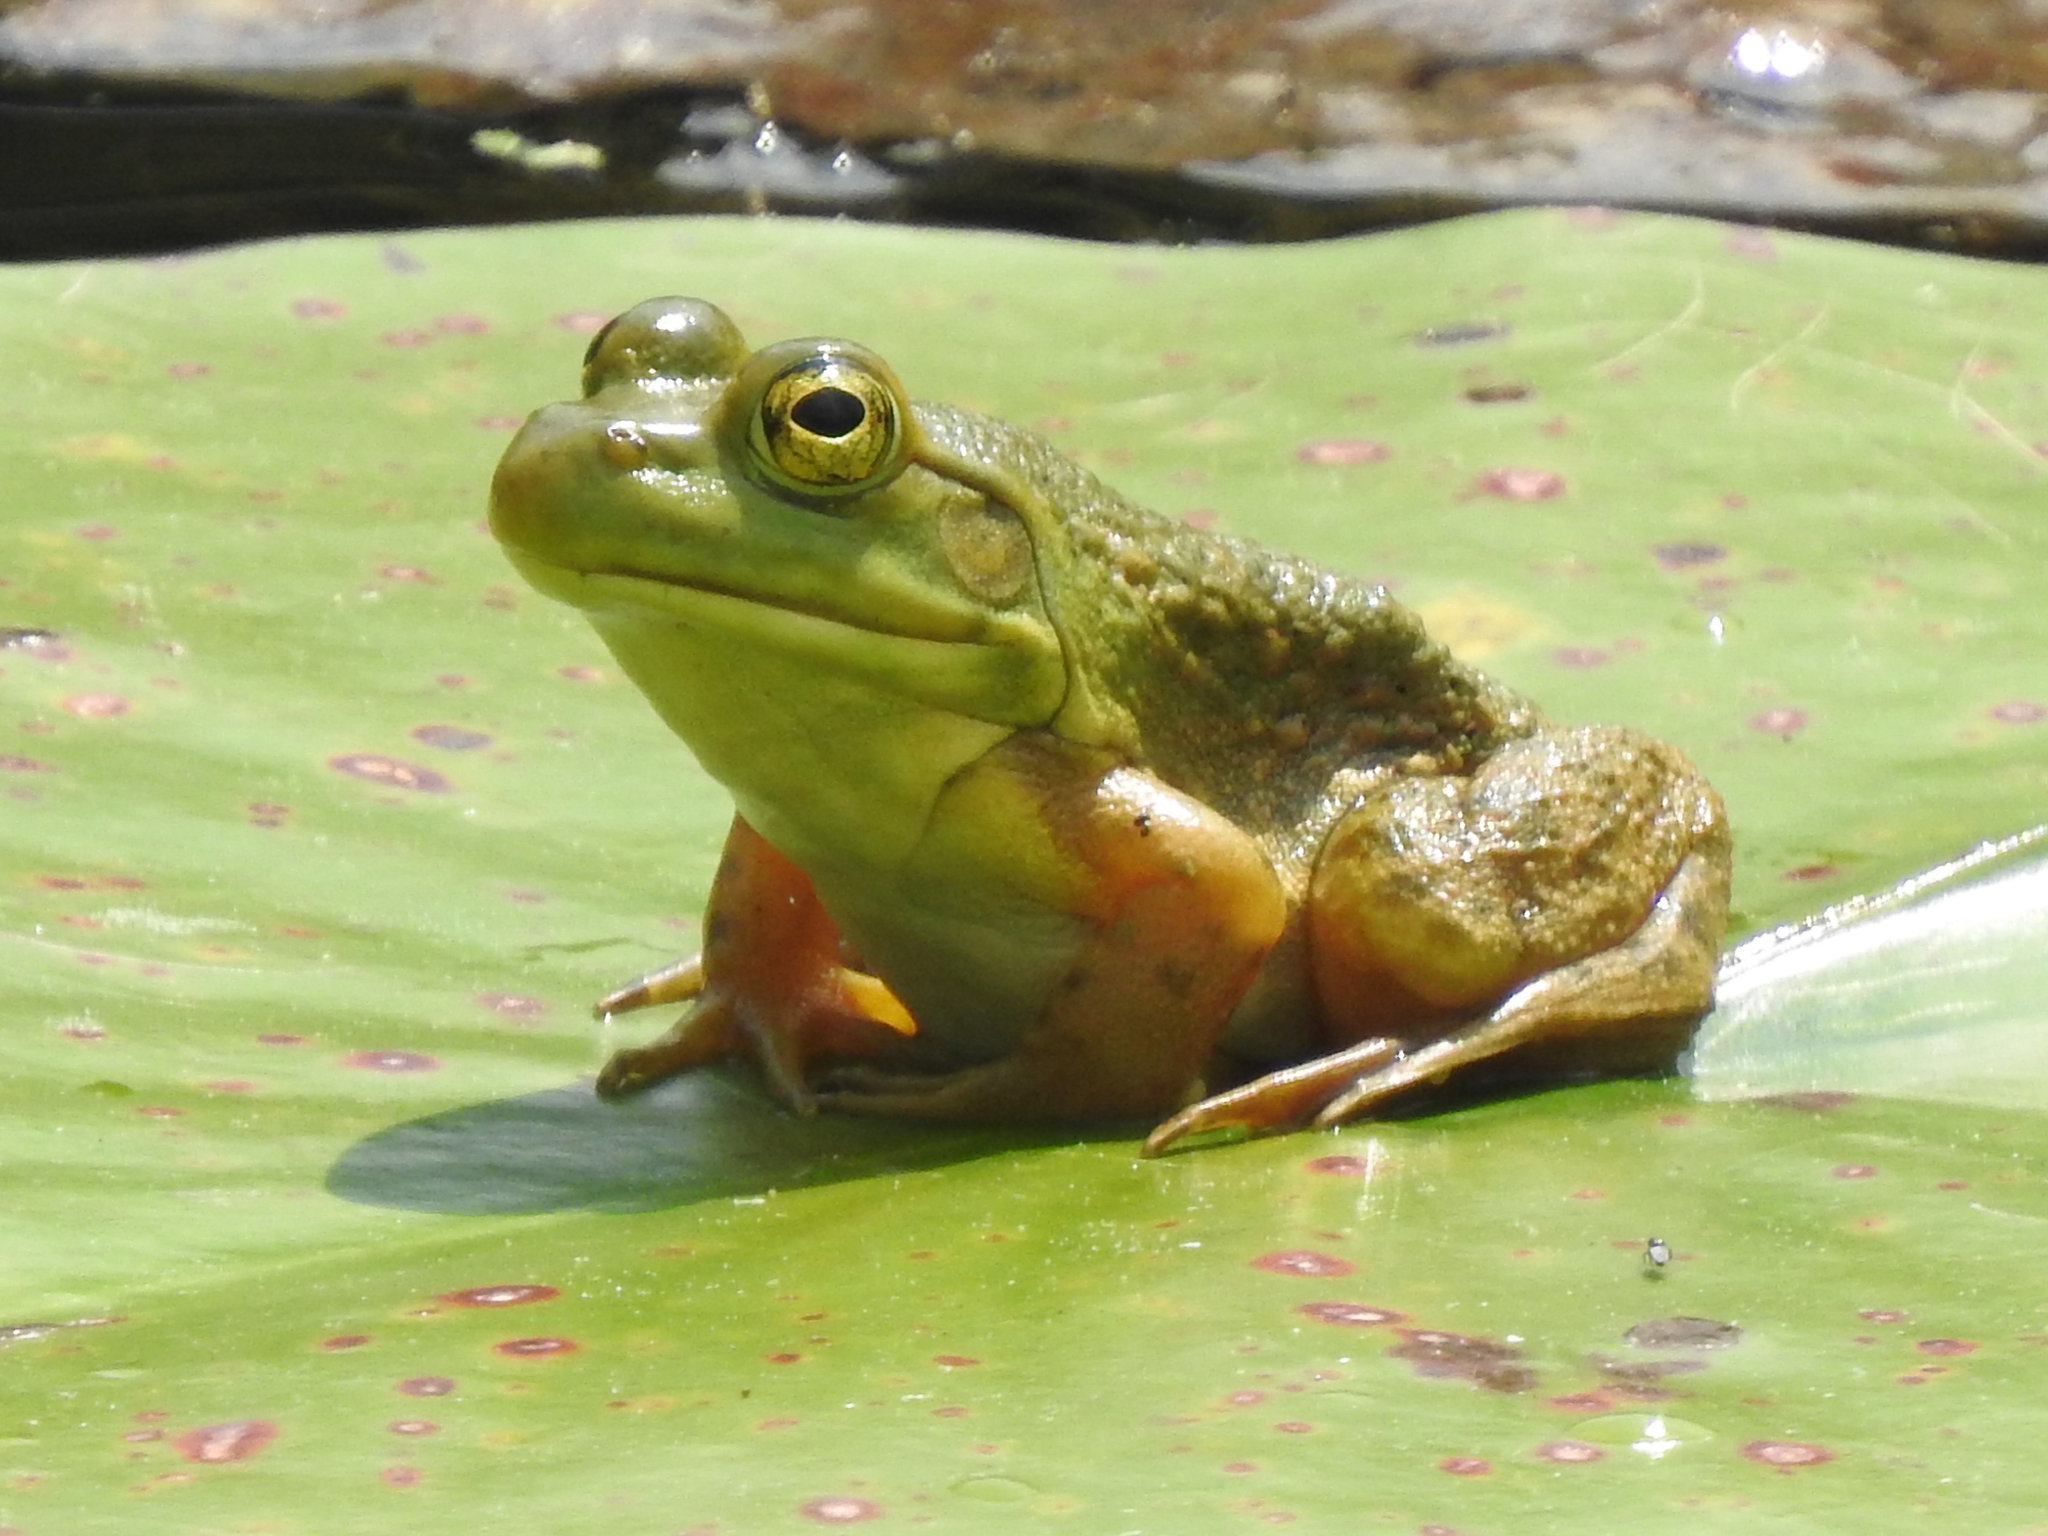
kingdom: Animalia
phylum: Chordata
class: Amphibia
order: Anura
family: Ranidae
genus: Lithobates
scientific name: Lithobates catesbeianus
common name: American bullfrog
